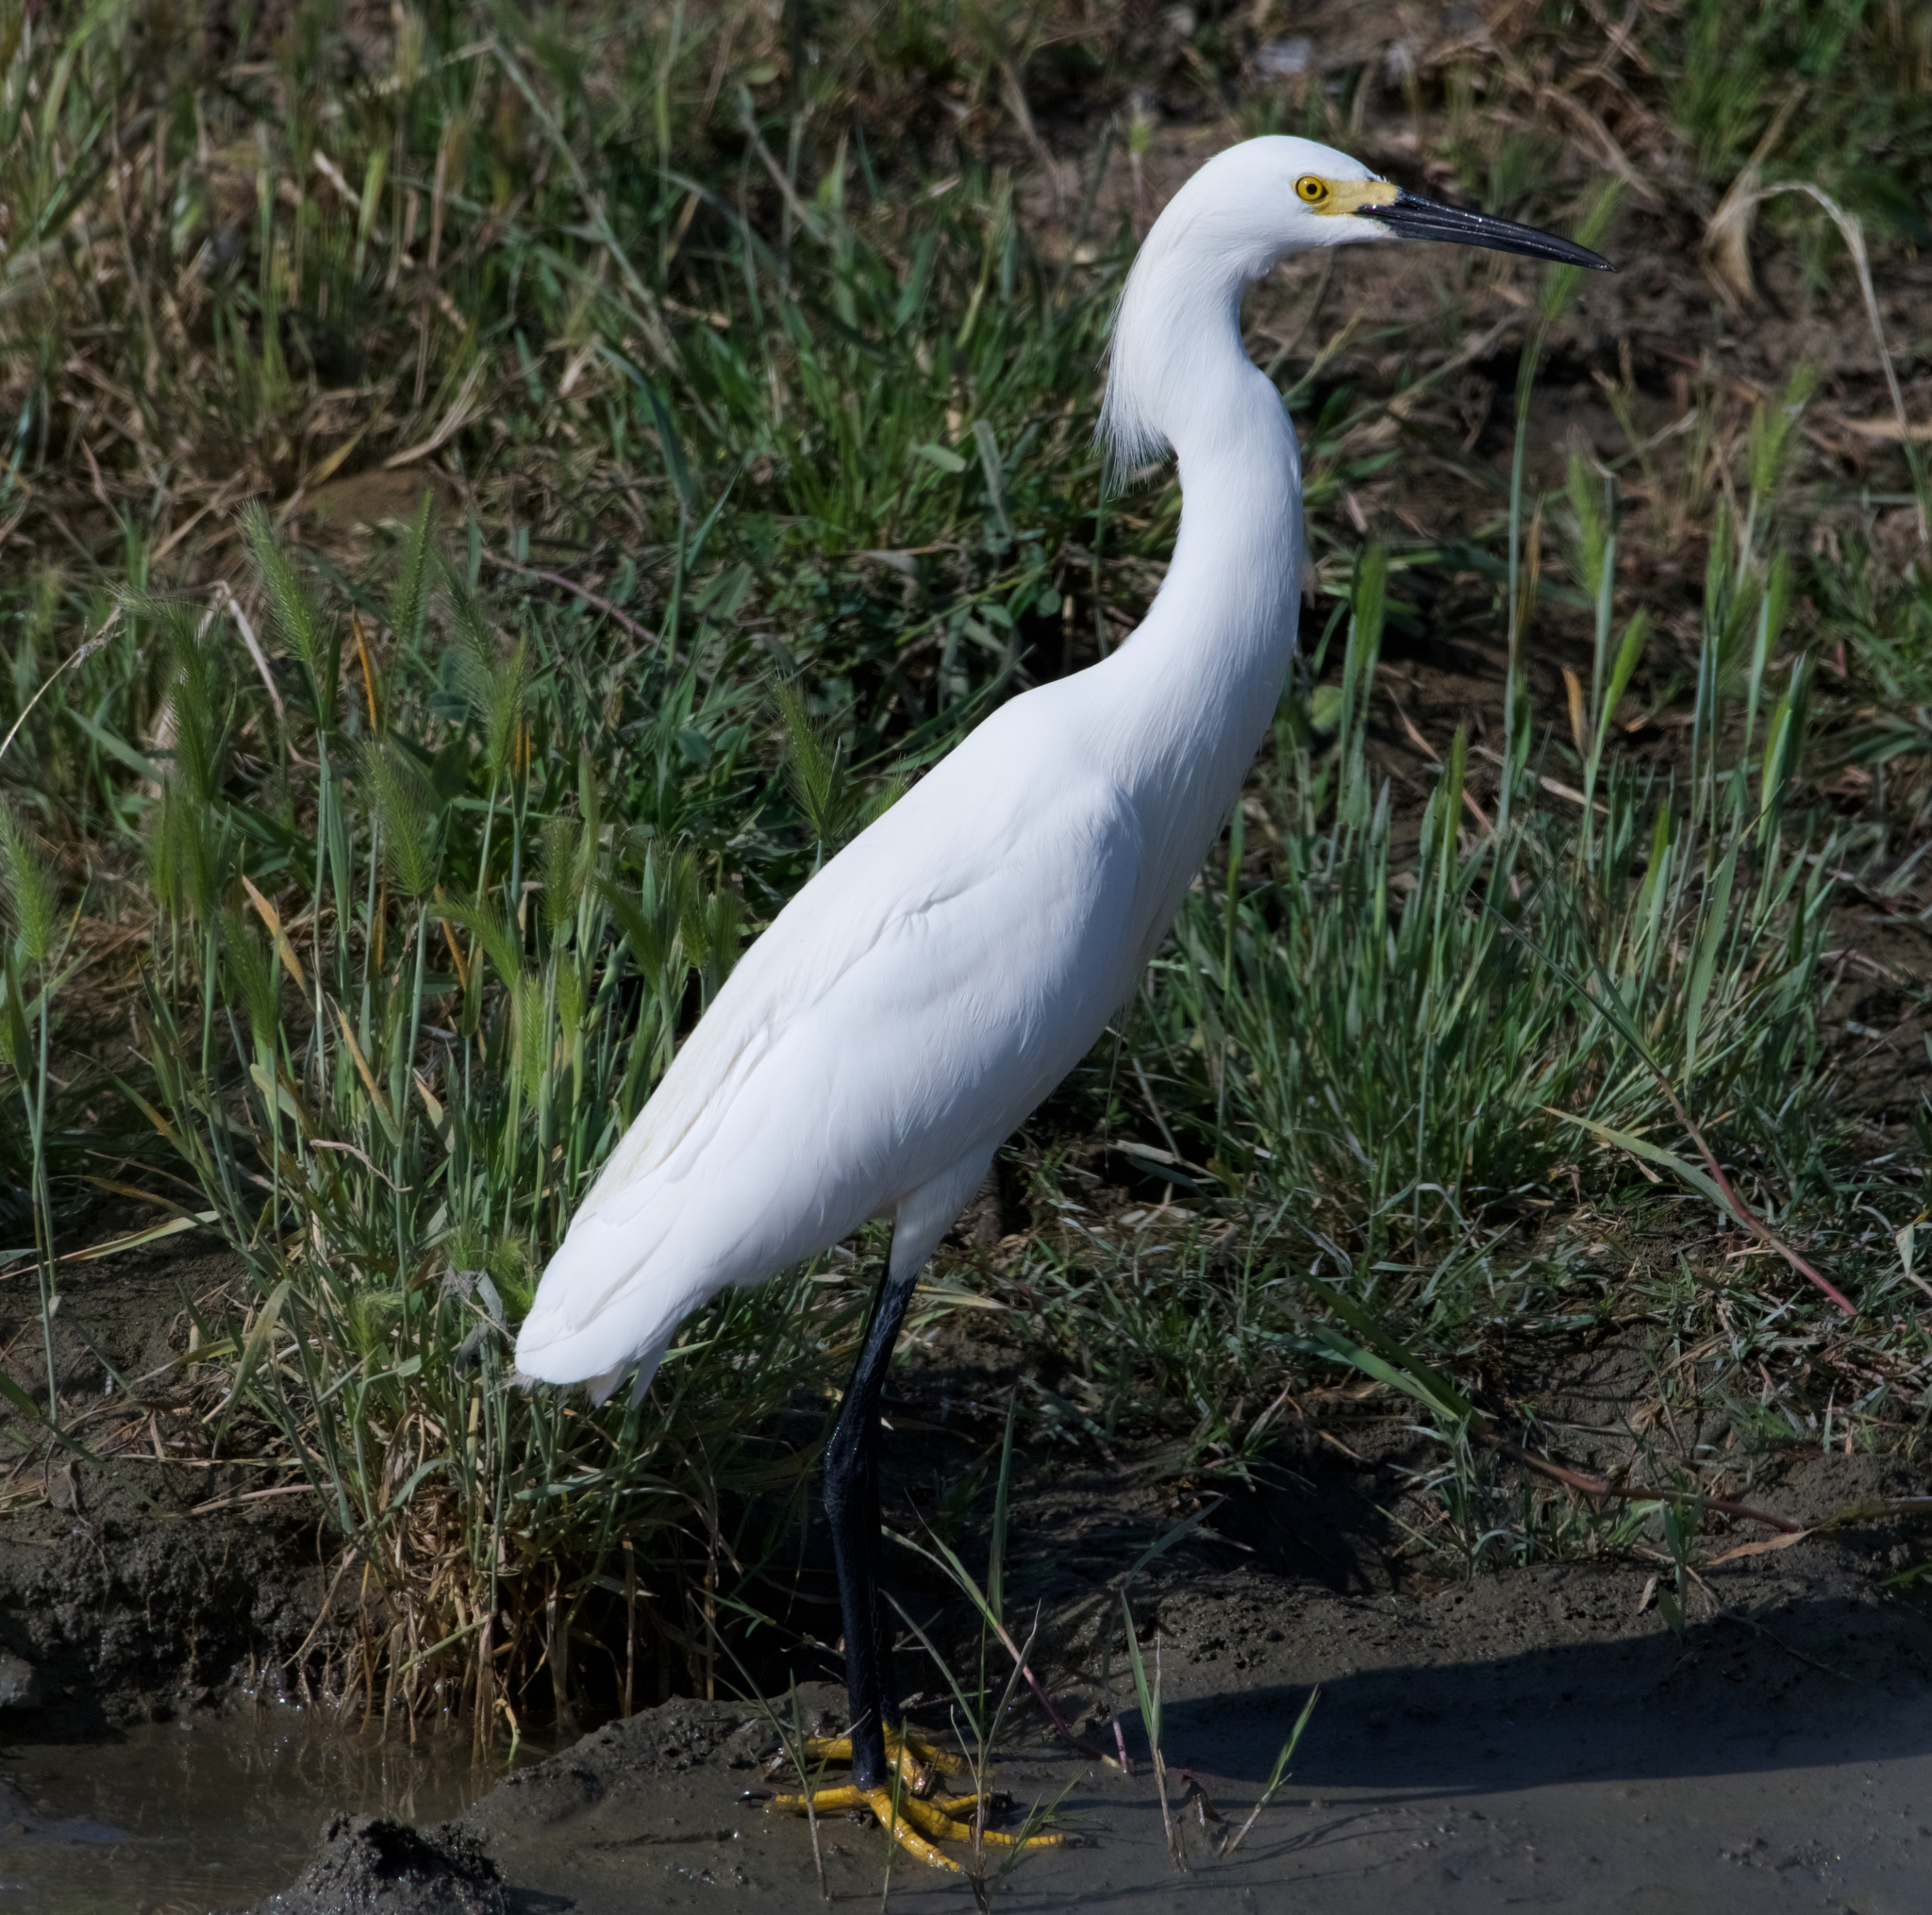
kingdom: Animalia
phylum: Chordata
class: Aves
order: Pelecaniformes
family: Ardeidae
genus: Egretta
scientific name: Egretta thula
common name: Snowy egret
